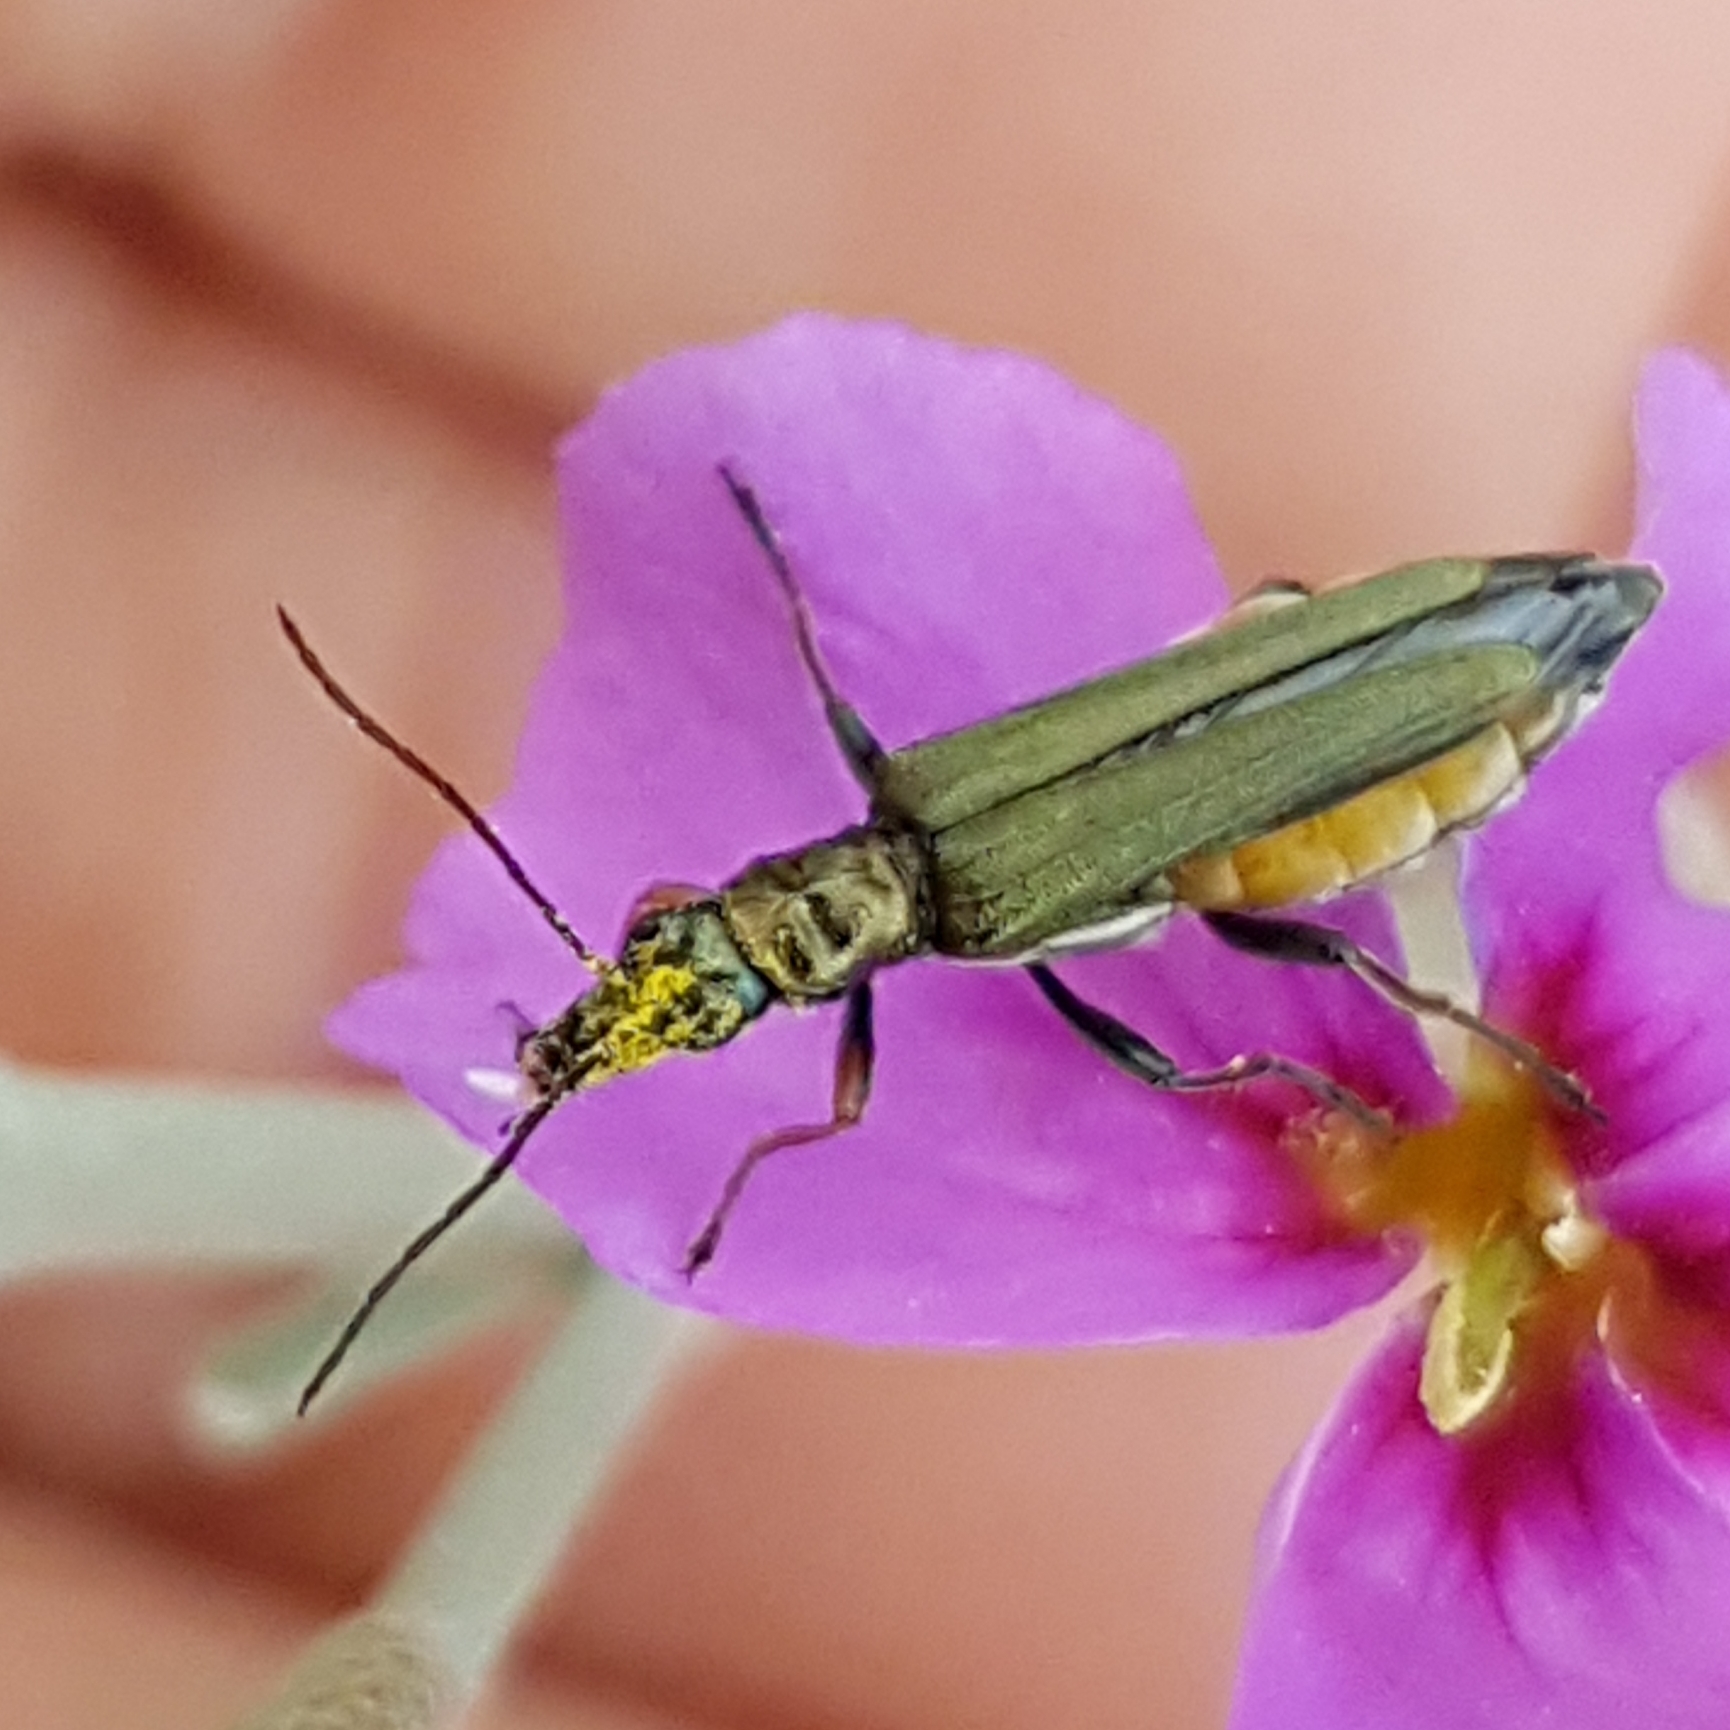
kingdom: Animalia
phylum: Arthropoda
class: Insecta
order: Coleoptera
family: Oedemeridae
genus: Oedemera
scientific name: Oedemera flavipes
